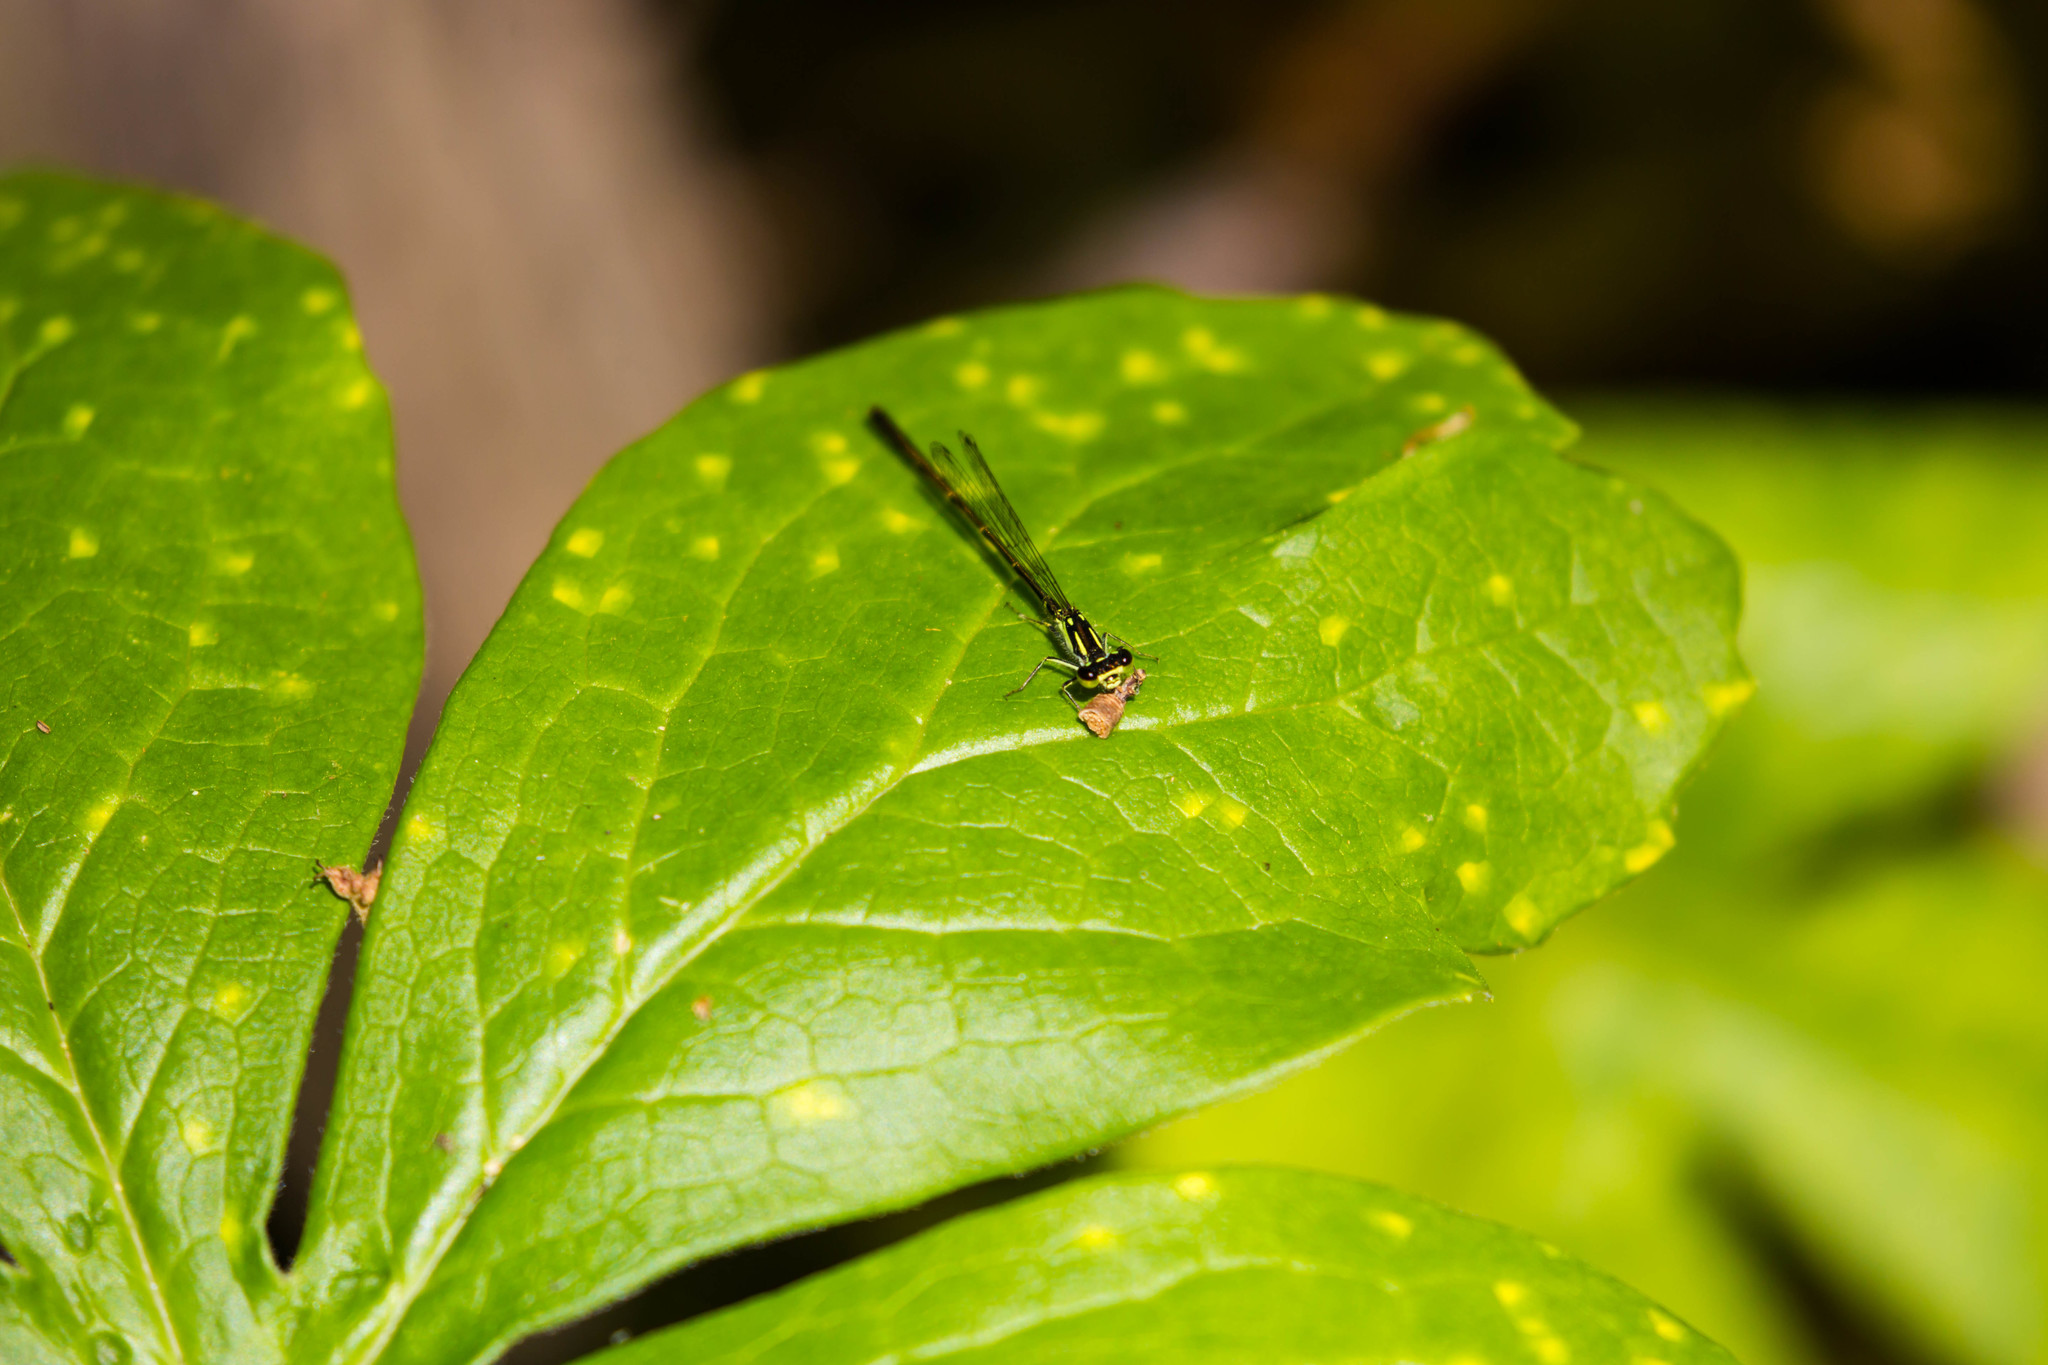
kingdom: Animalia
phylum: Arthropoda
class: Insecta
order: Odonata
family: Coenagrionidae
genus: Ischnura
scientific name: Ischnura posita
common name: Fragile forktail
